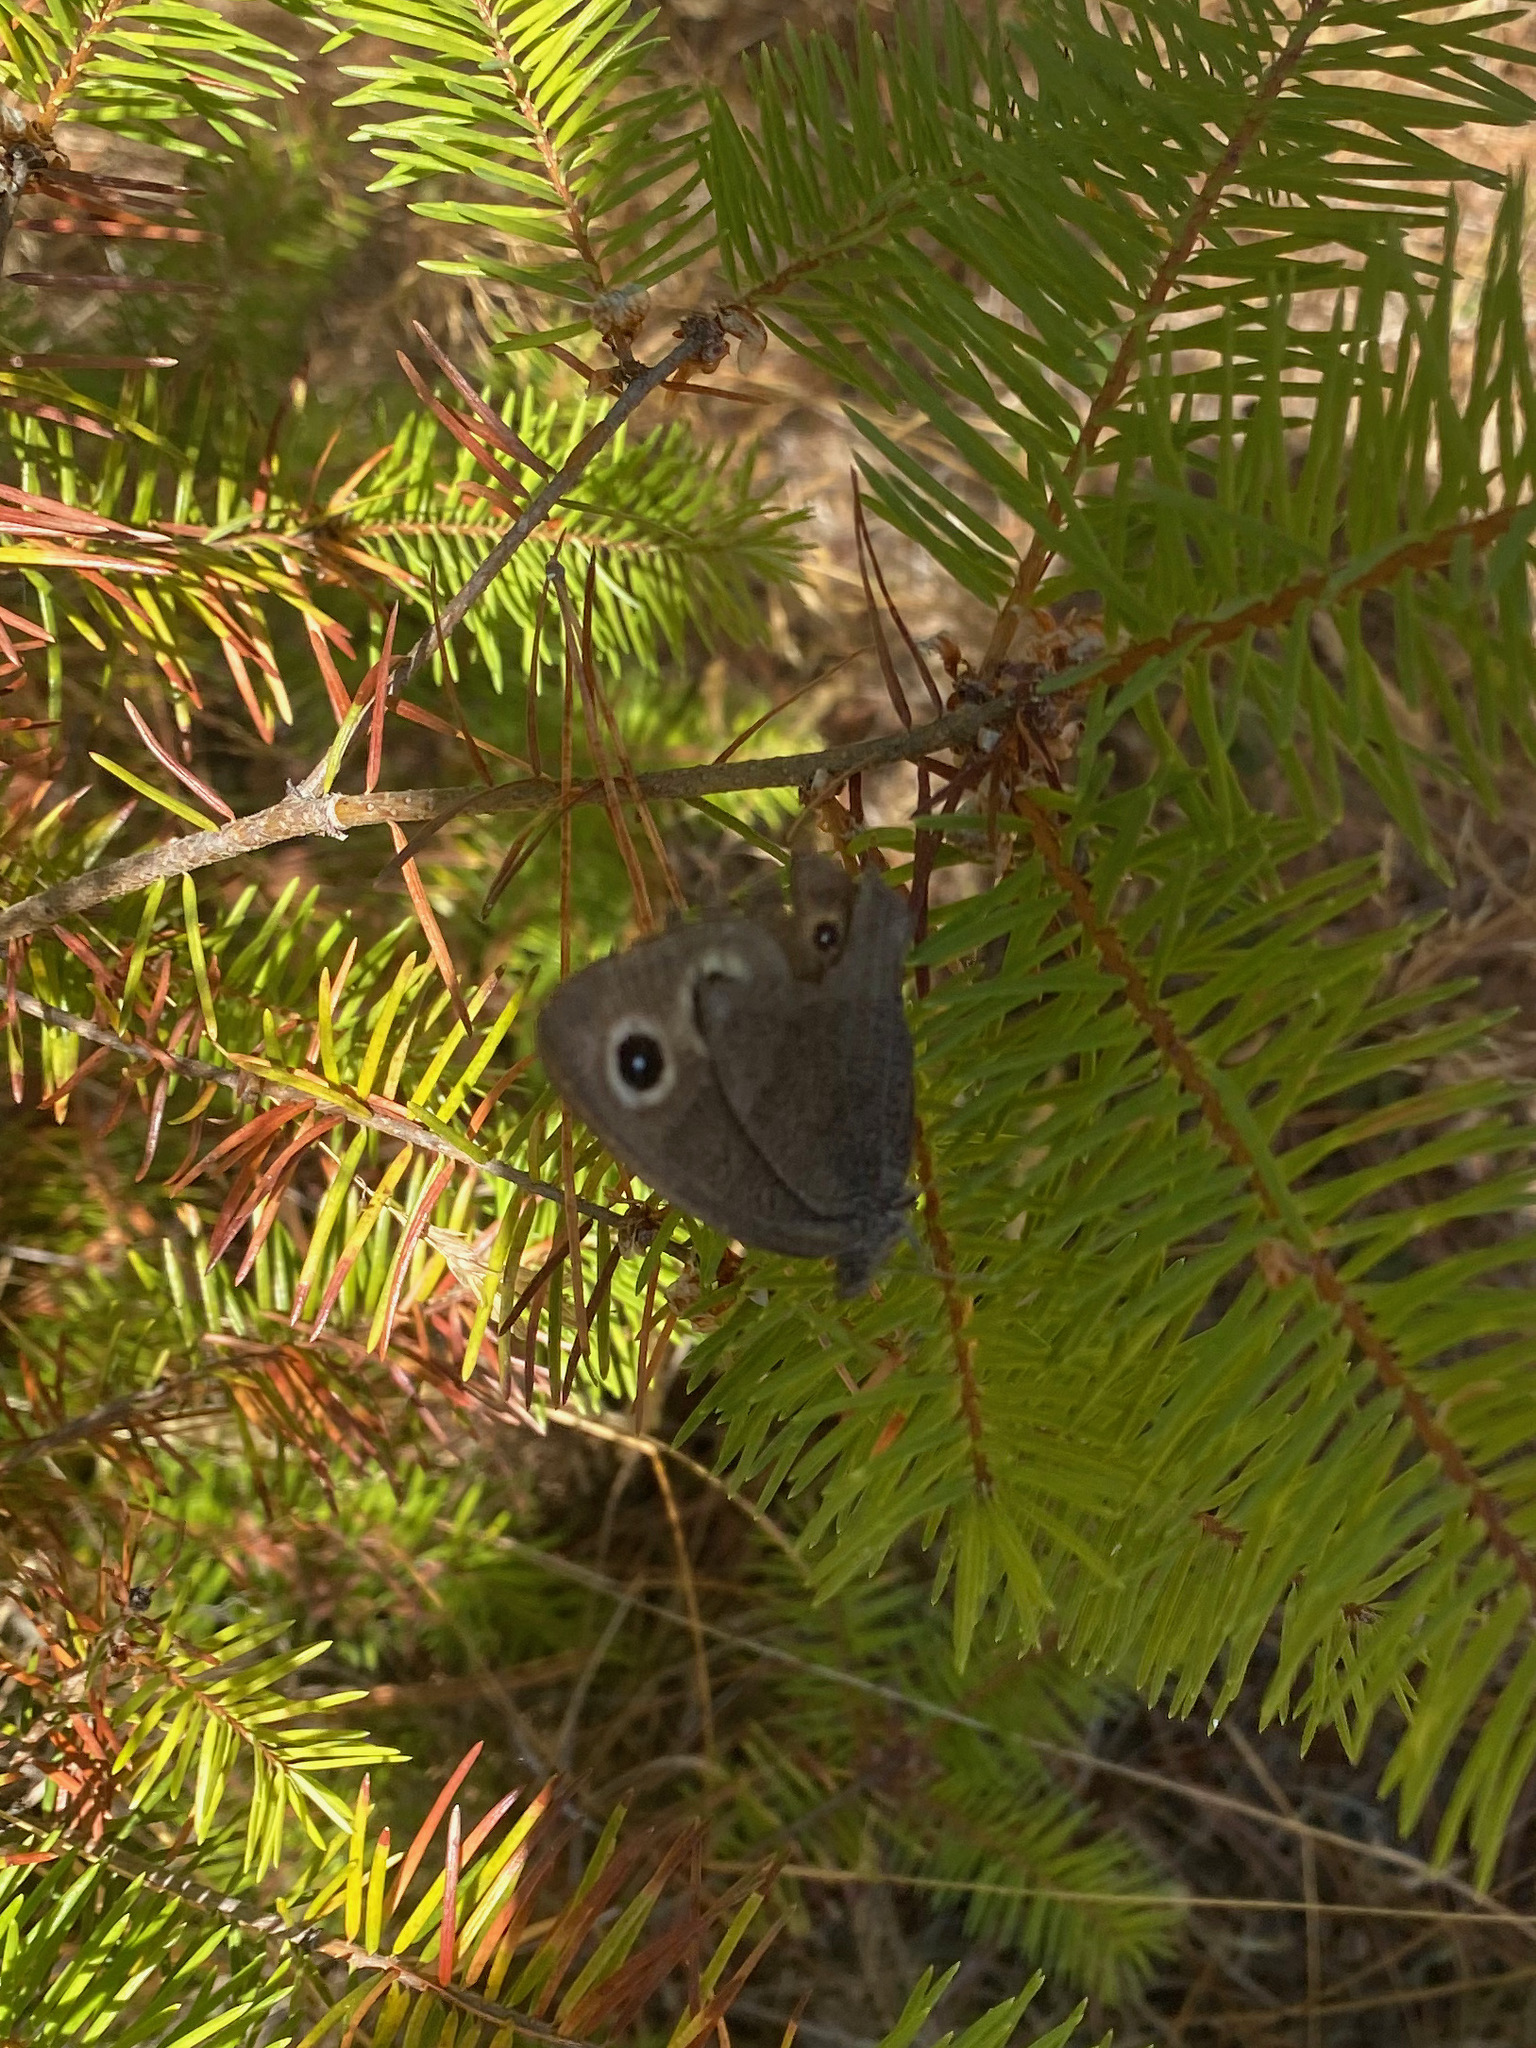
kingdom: Animalia
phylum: Arthropoda
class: Insecta
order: Lepidoptera
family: Nymphalidae
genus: Cercyonis
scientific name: Cercyonis pegala
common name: Common wood-nymph
